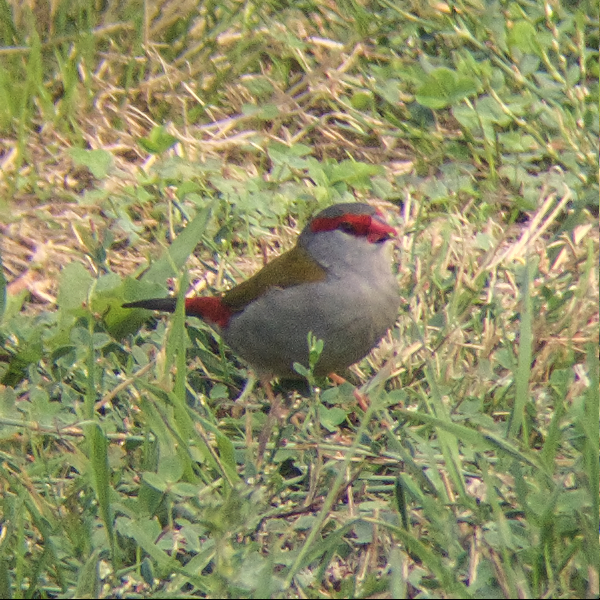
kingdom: Animalia
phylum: Chordata
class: Aves
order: Passeriformes
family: Estrildidae
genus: Neochmia
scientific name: Neochmia temporalis
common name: Red-browed finch
